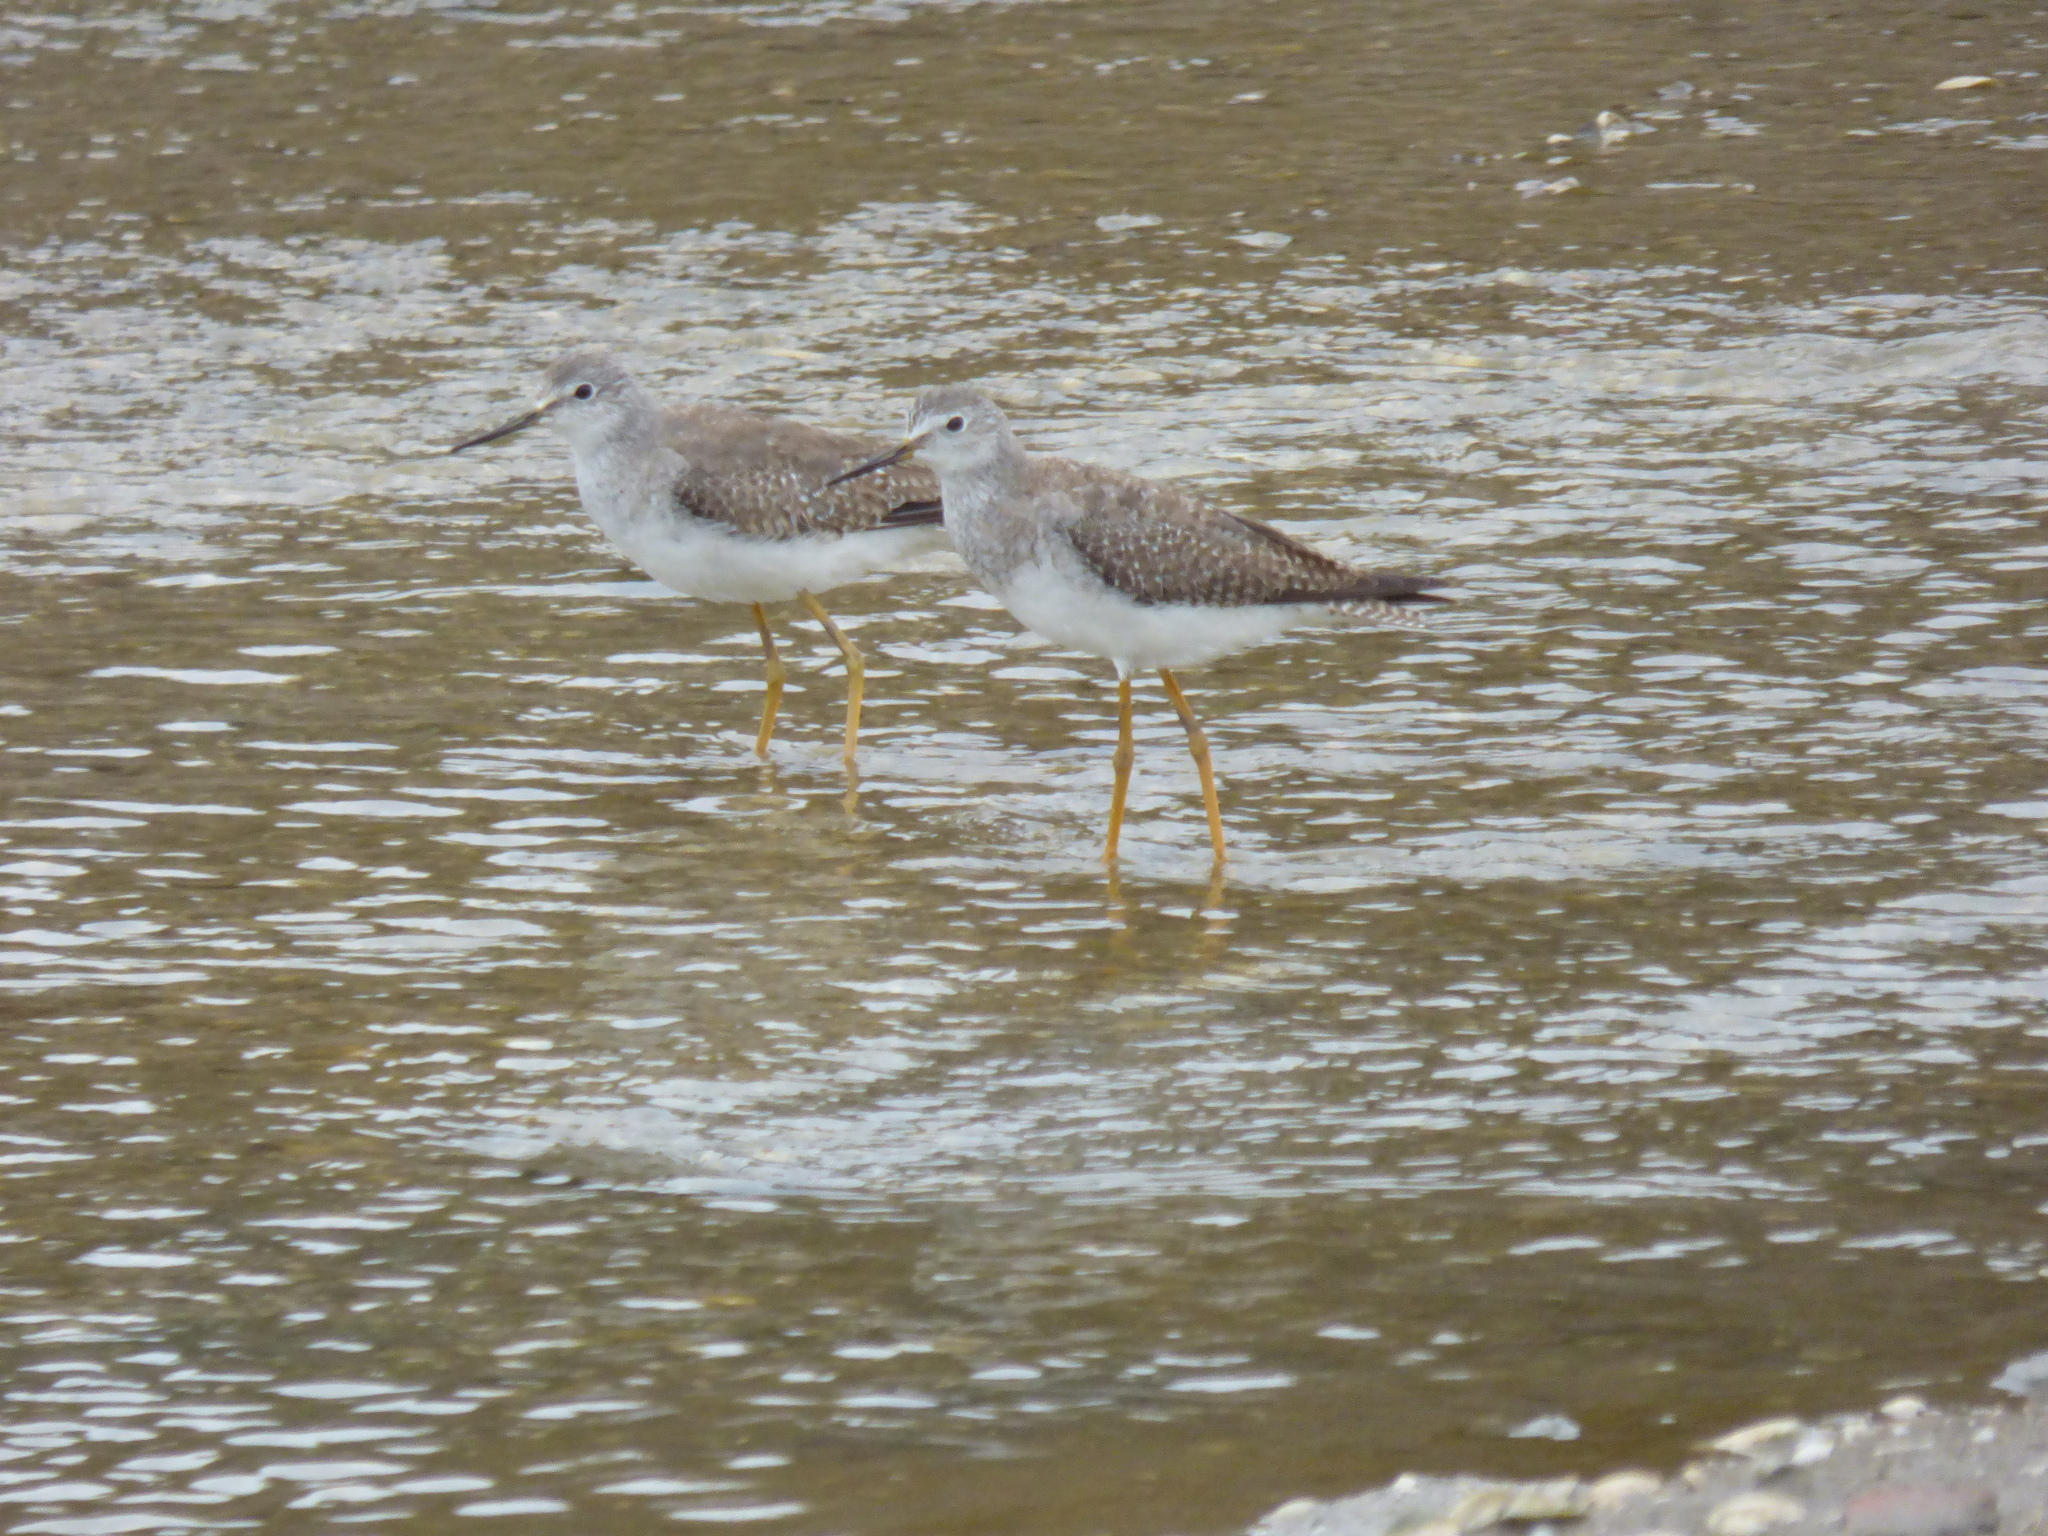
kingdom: Animalia
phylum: Chordata
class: Aves
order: Charadriiformes
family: Scolopacidae
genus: Tringa
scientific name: Tringa flavipes
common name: Lesser yellowlegs
